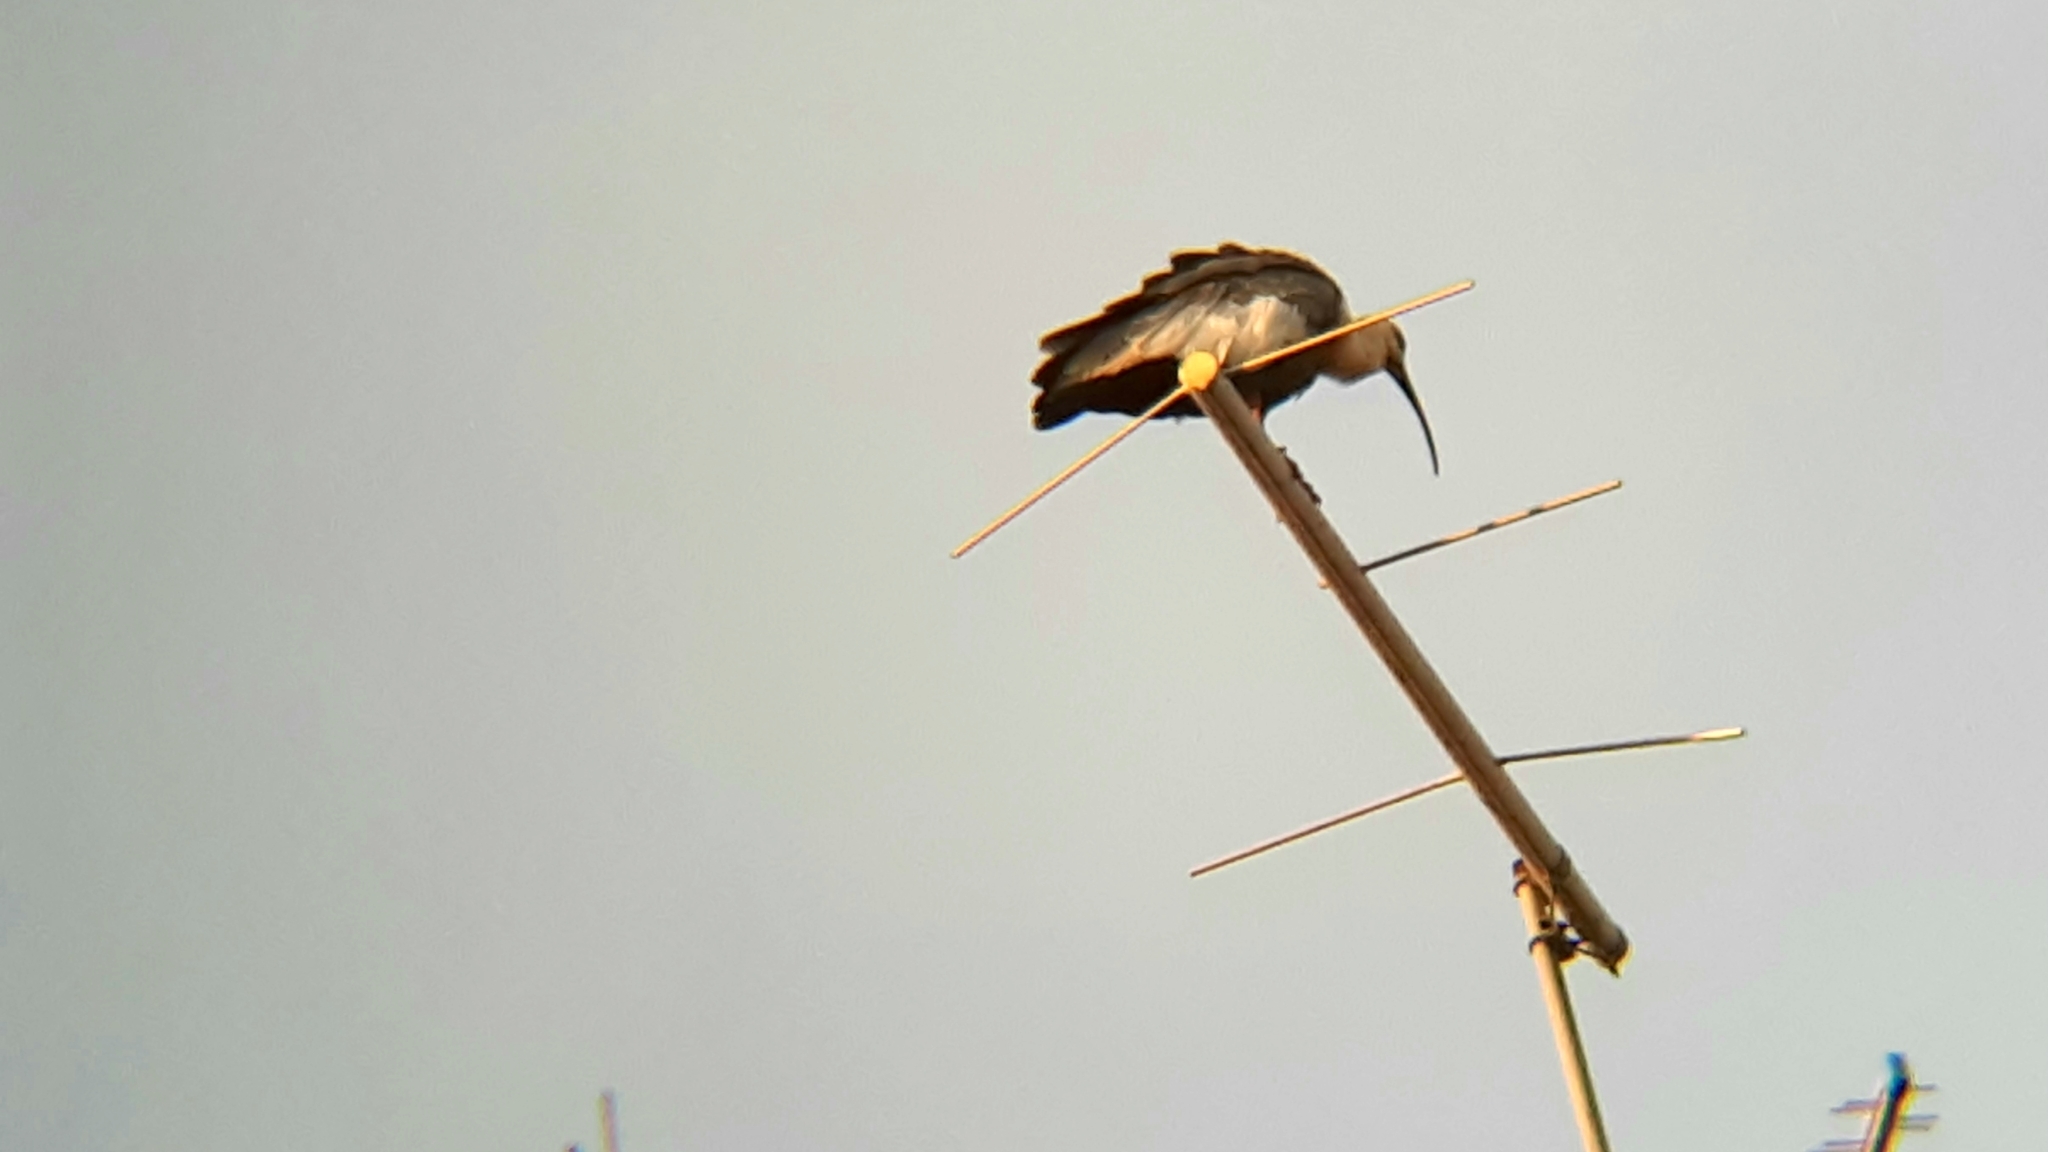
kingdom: Animalia
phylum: Chordata
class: Aves
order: Pelecaniformes
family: Threskiornithidae
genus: Theristicus
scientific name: Theristicus caudatus
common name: Buff-necked ibis
